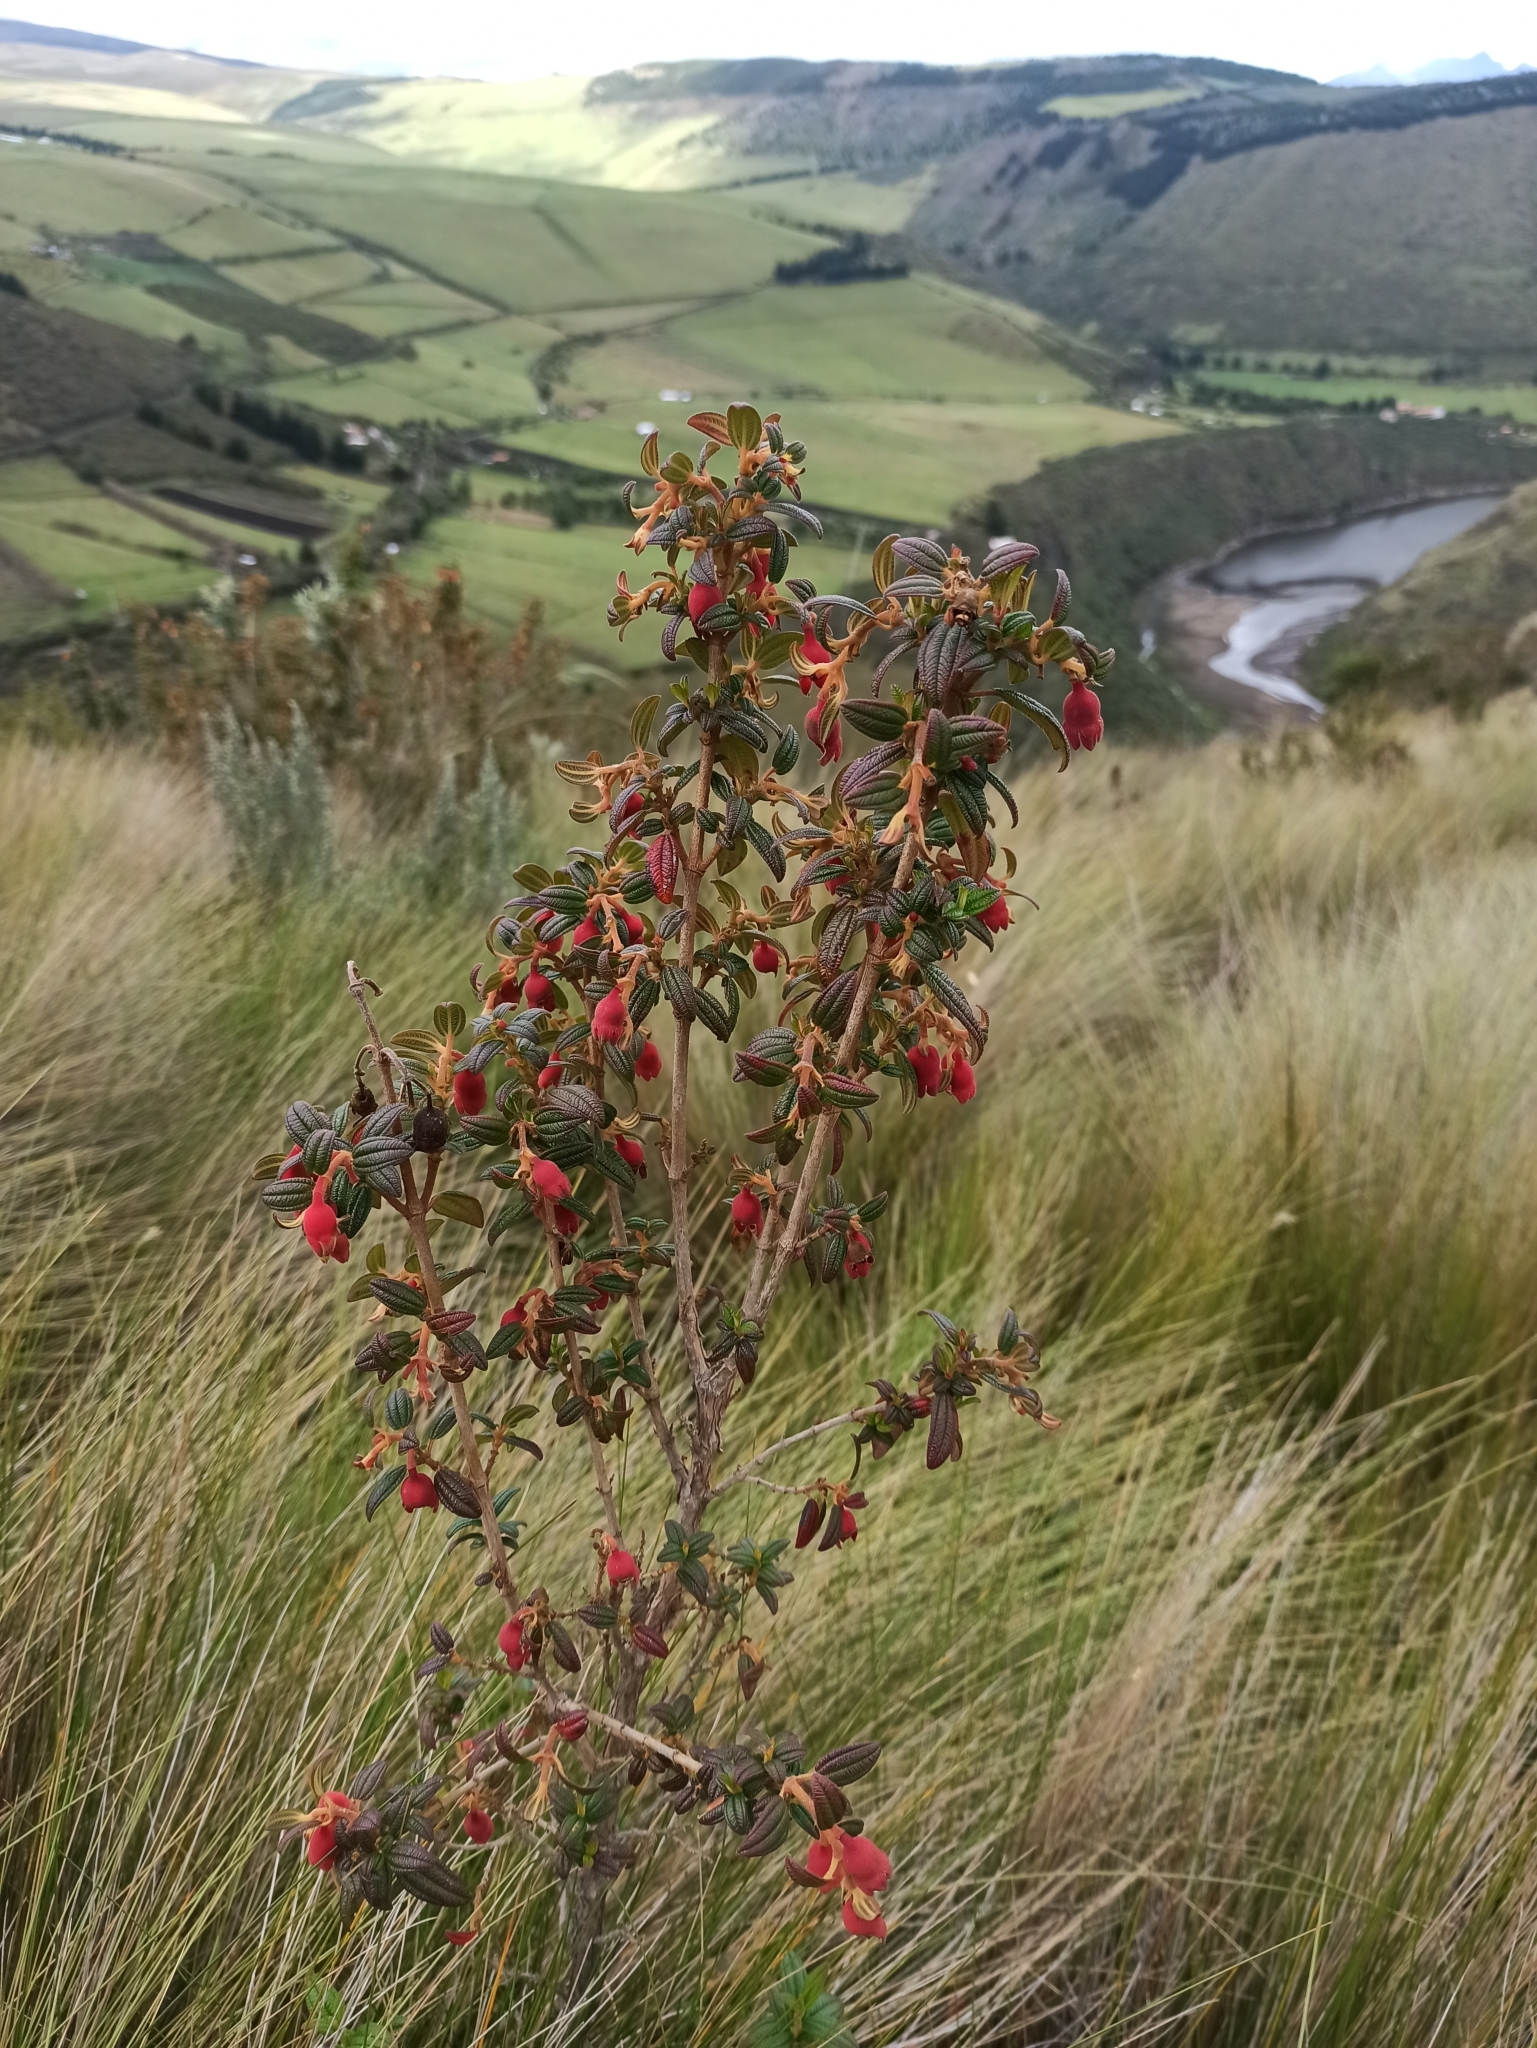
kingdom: Plantae
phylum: Tracheophyta
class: Magnoliopsida
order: Myrtales
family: Melastomataceae
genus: Brachyotum
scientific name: Brachyotum ledifolium
